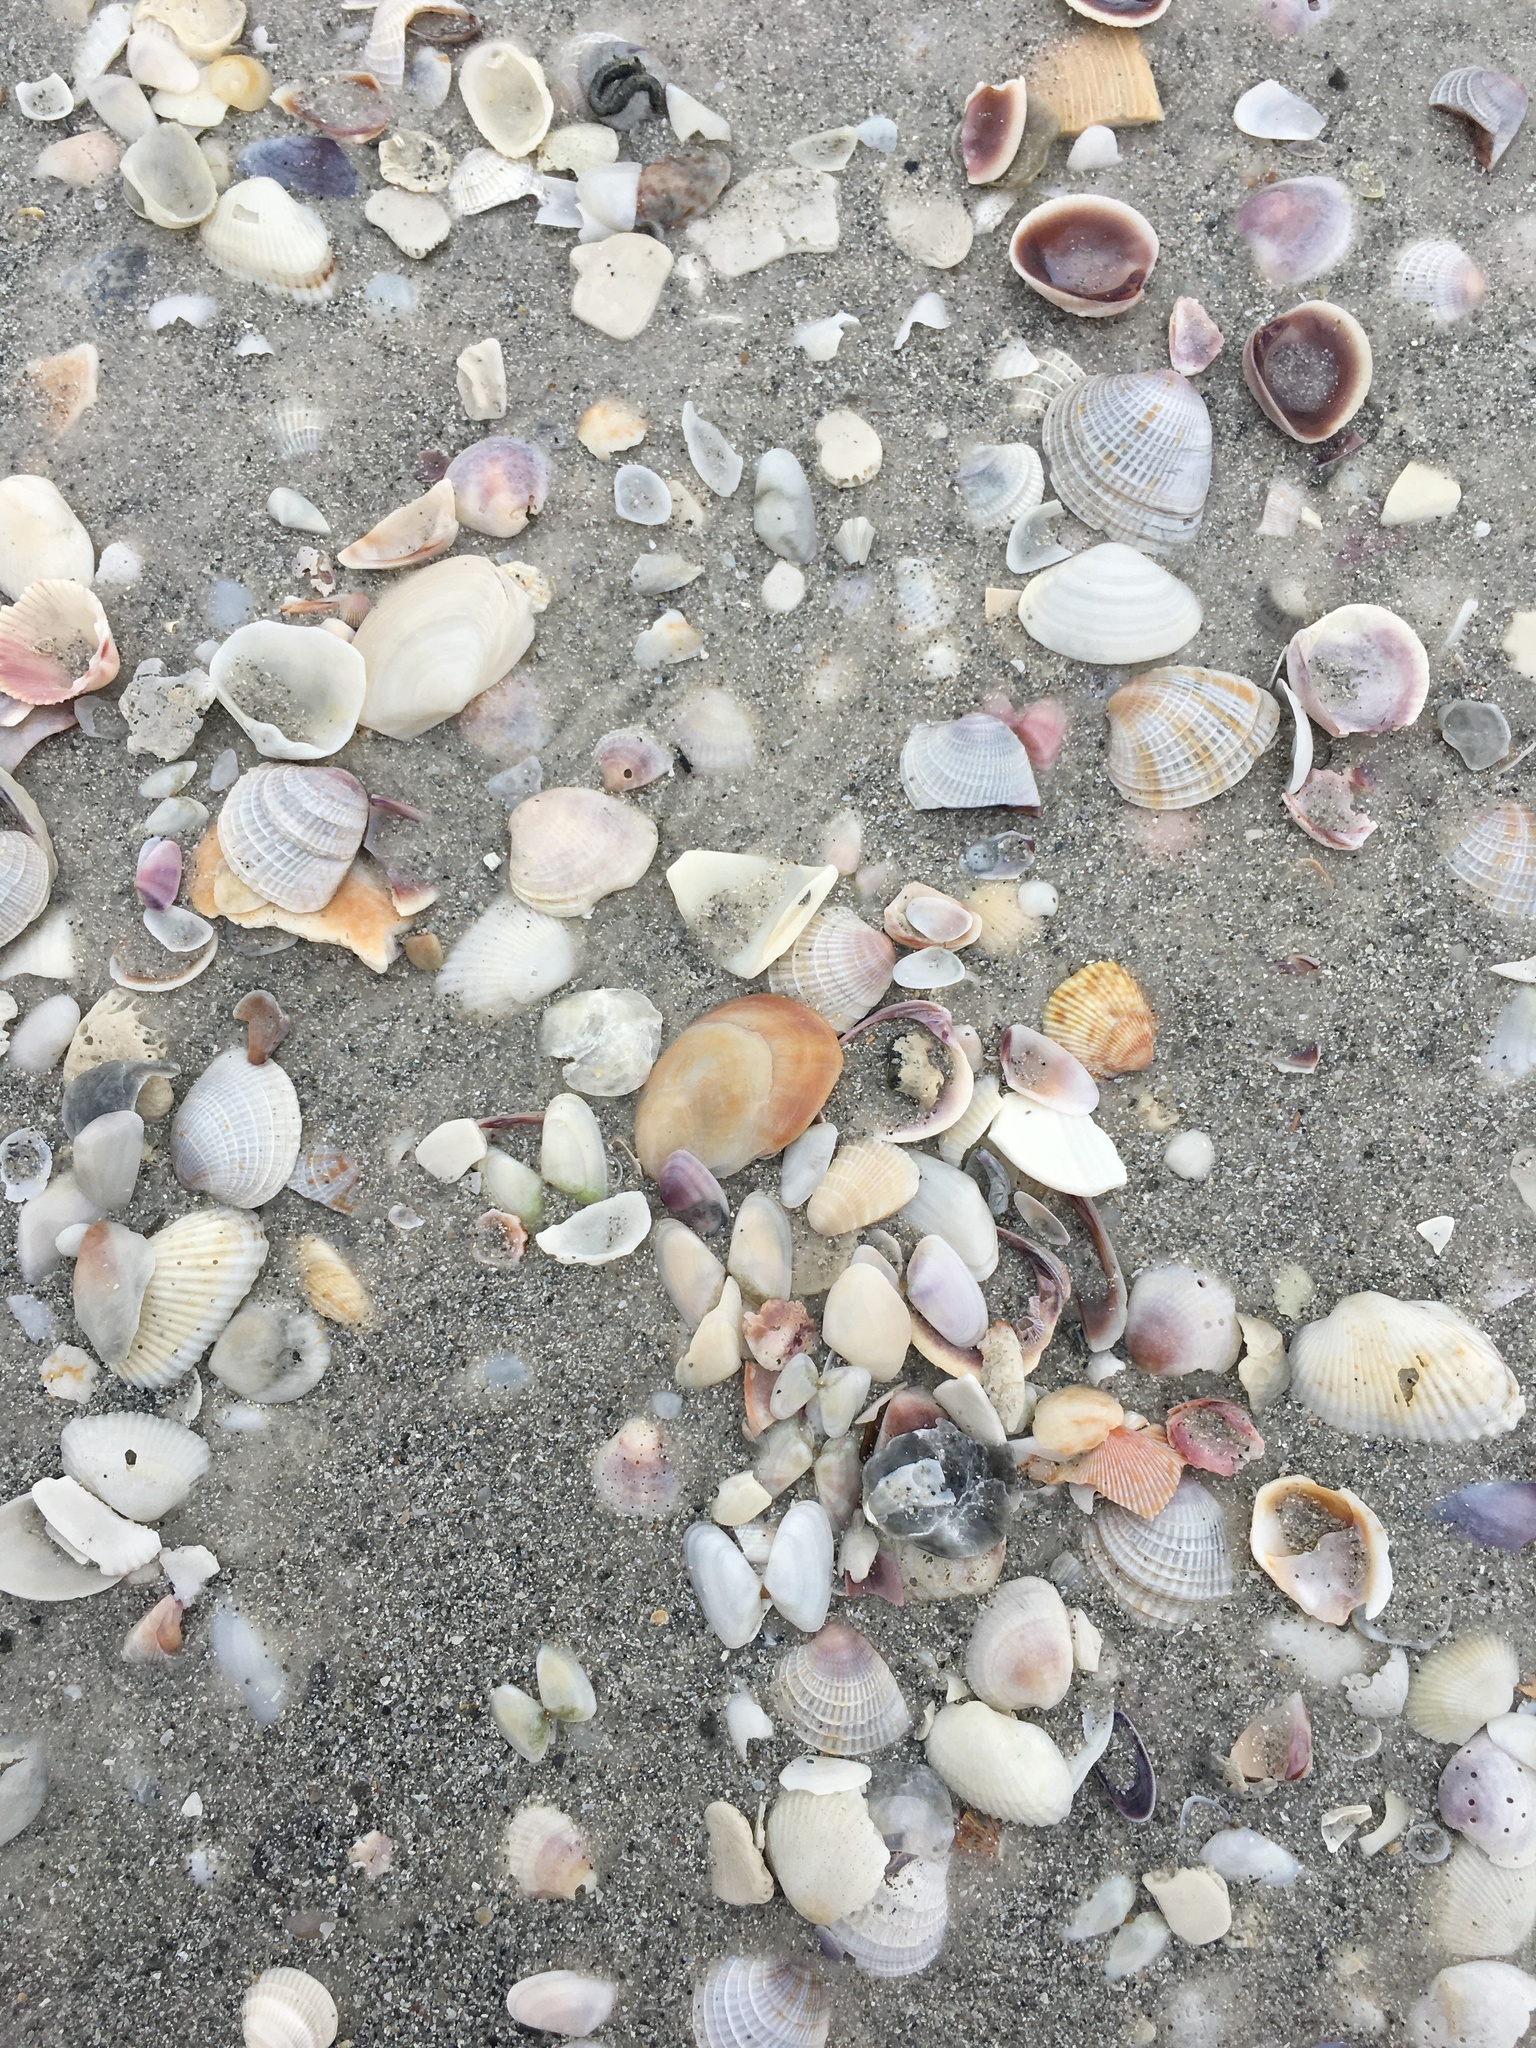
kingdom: Animalia
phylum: Mollusca
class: Bivalvia
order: Cardiida
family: Donacidae
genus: Donax
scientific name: Donax variabilis
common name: Butterfly shell
